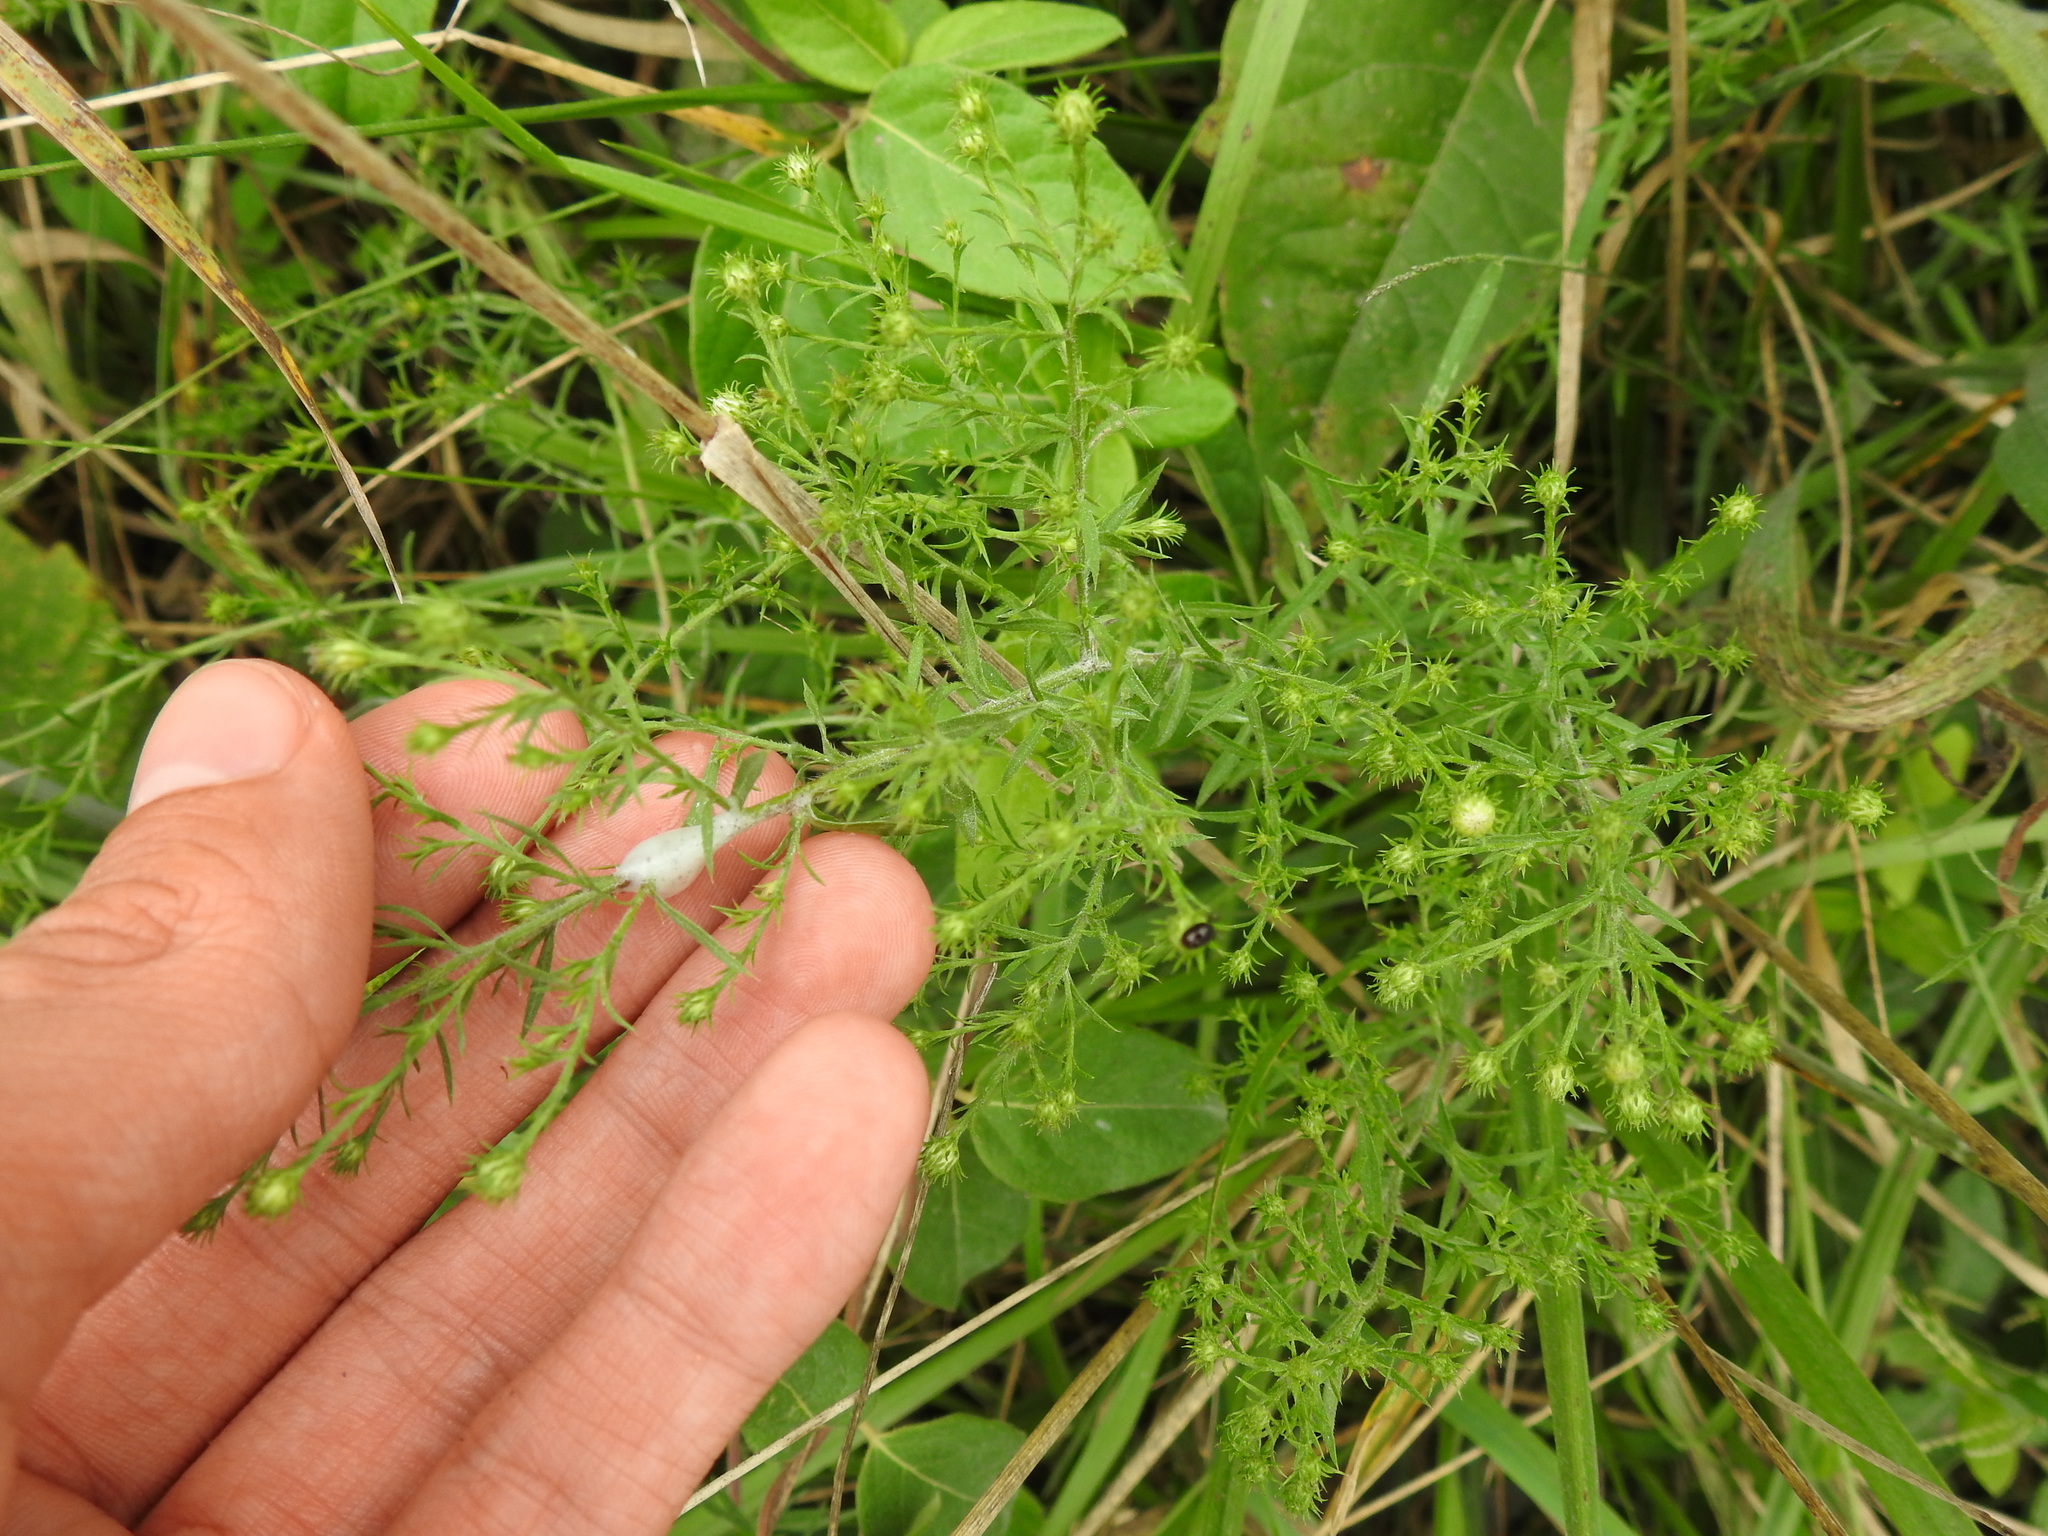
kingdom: Plantae
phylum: Tracheophyta
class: Magnoliopsida
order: Asterales
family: Asteraceae
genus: Symphyotrichum
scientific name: Symphyotrichum pilosum
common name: Awl aster
